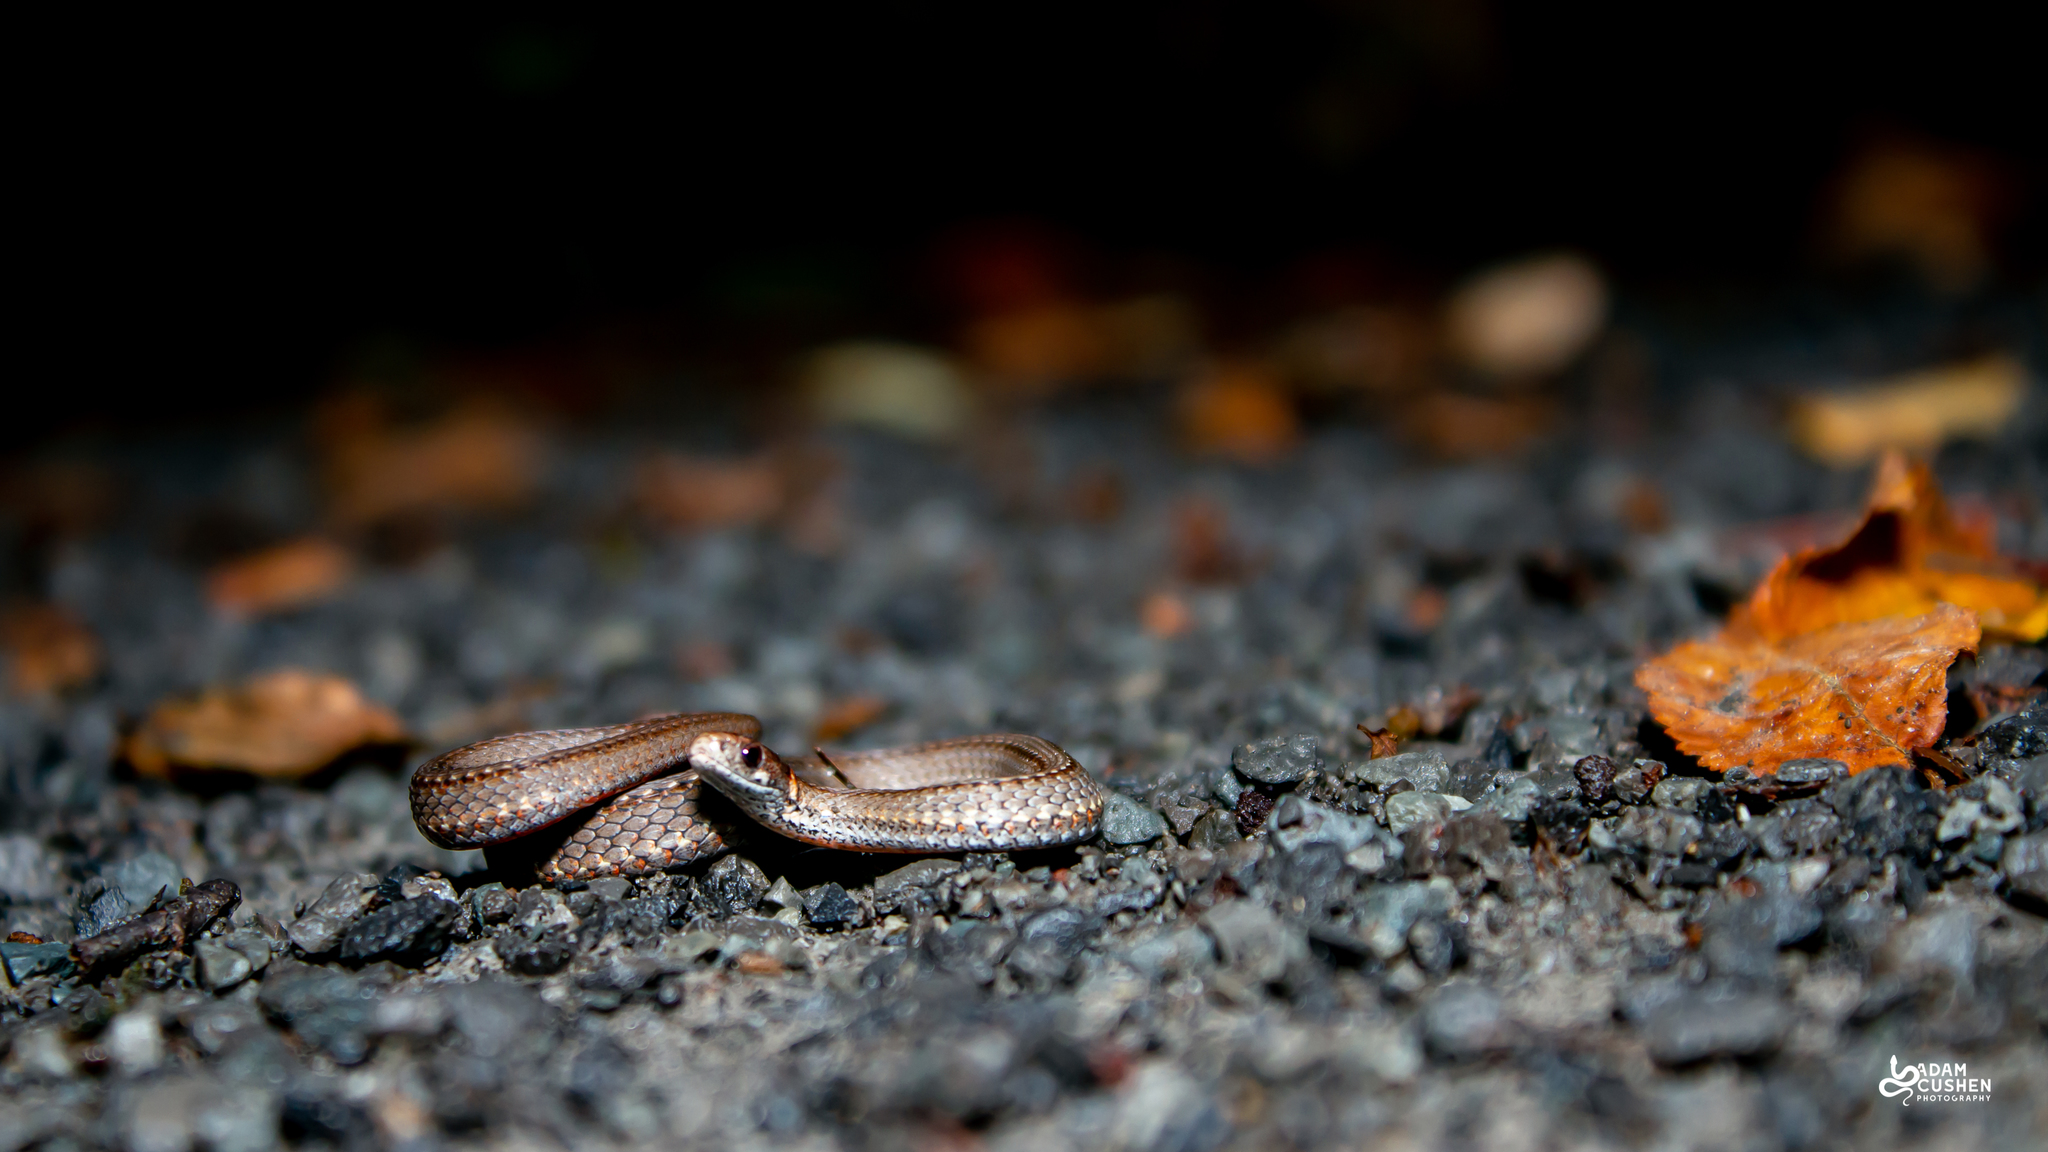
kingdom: Animalia
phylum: Chordata
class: Squamata
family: Colubridae
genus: Storeria
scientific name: Storeria occipitomaculata
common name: Redbelly snake
